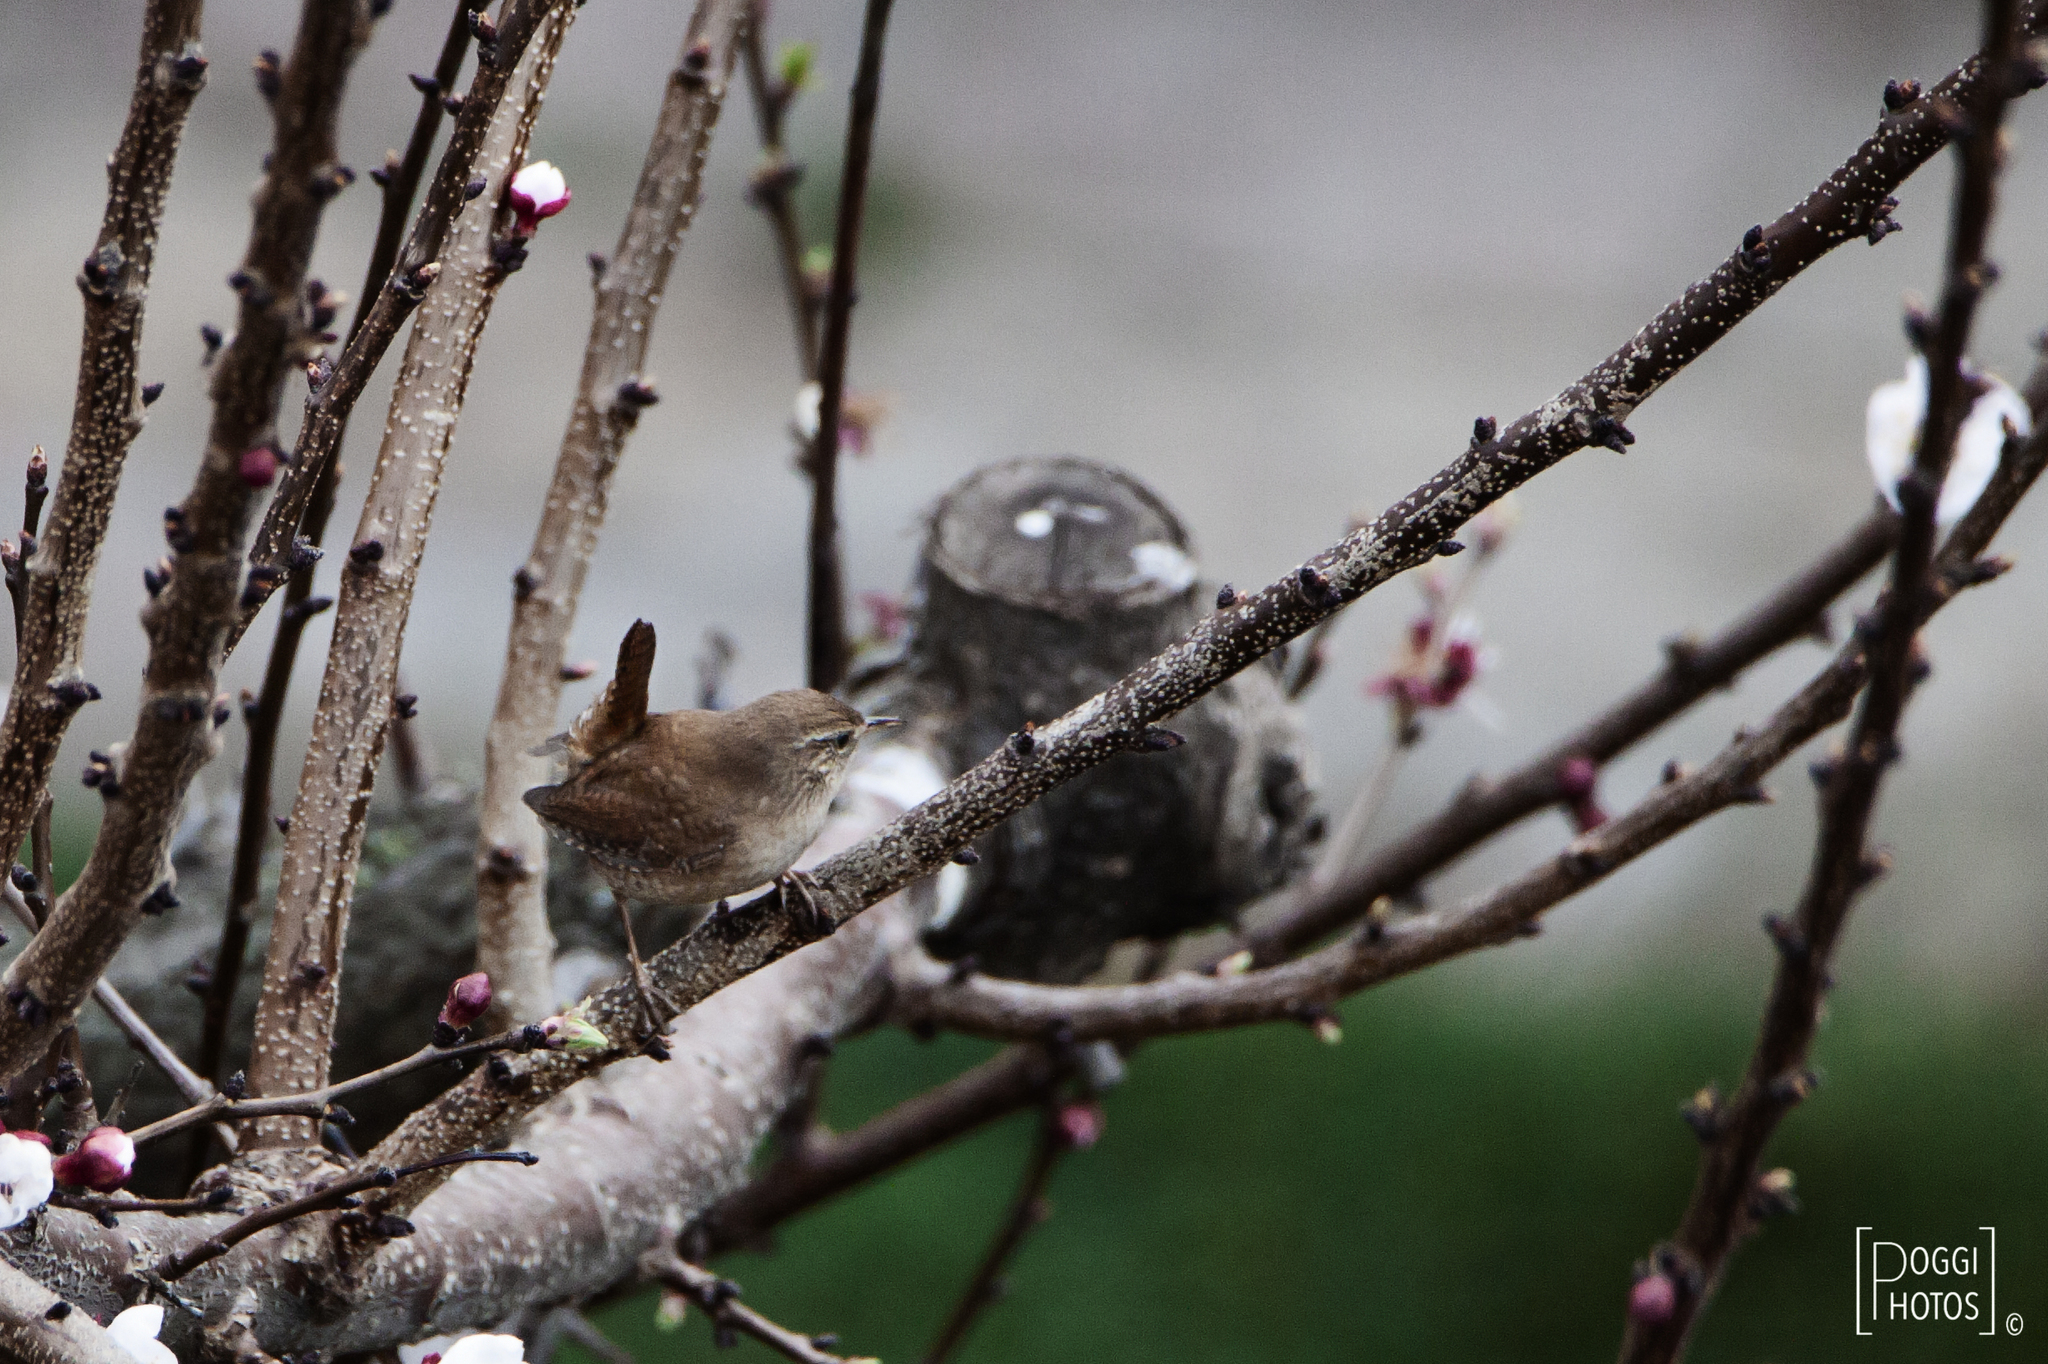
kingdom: Animalia
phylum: Chordata
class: Aves
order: Passeriformes
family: Troglodytidae
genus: Troglodytes
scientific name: Troglodytes troglodytes
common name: Eurasian wren
